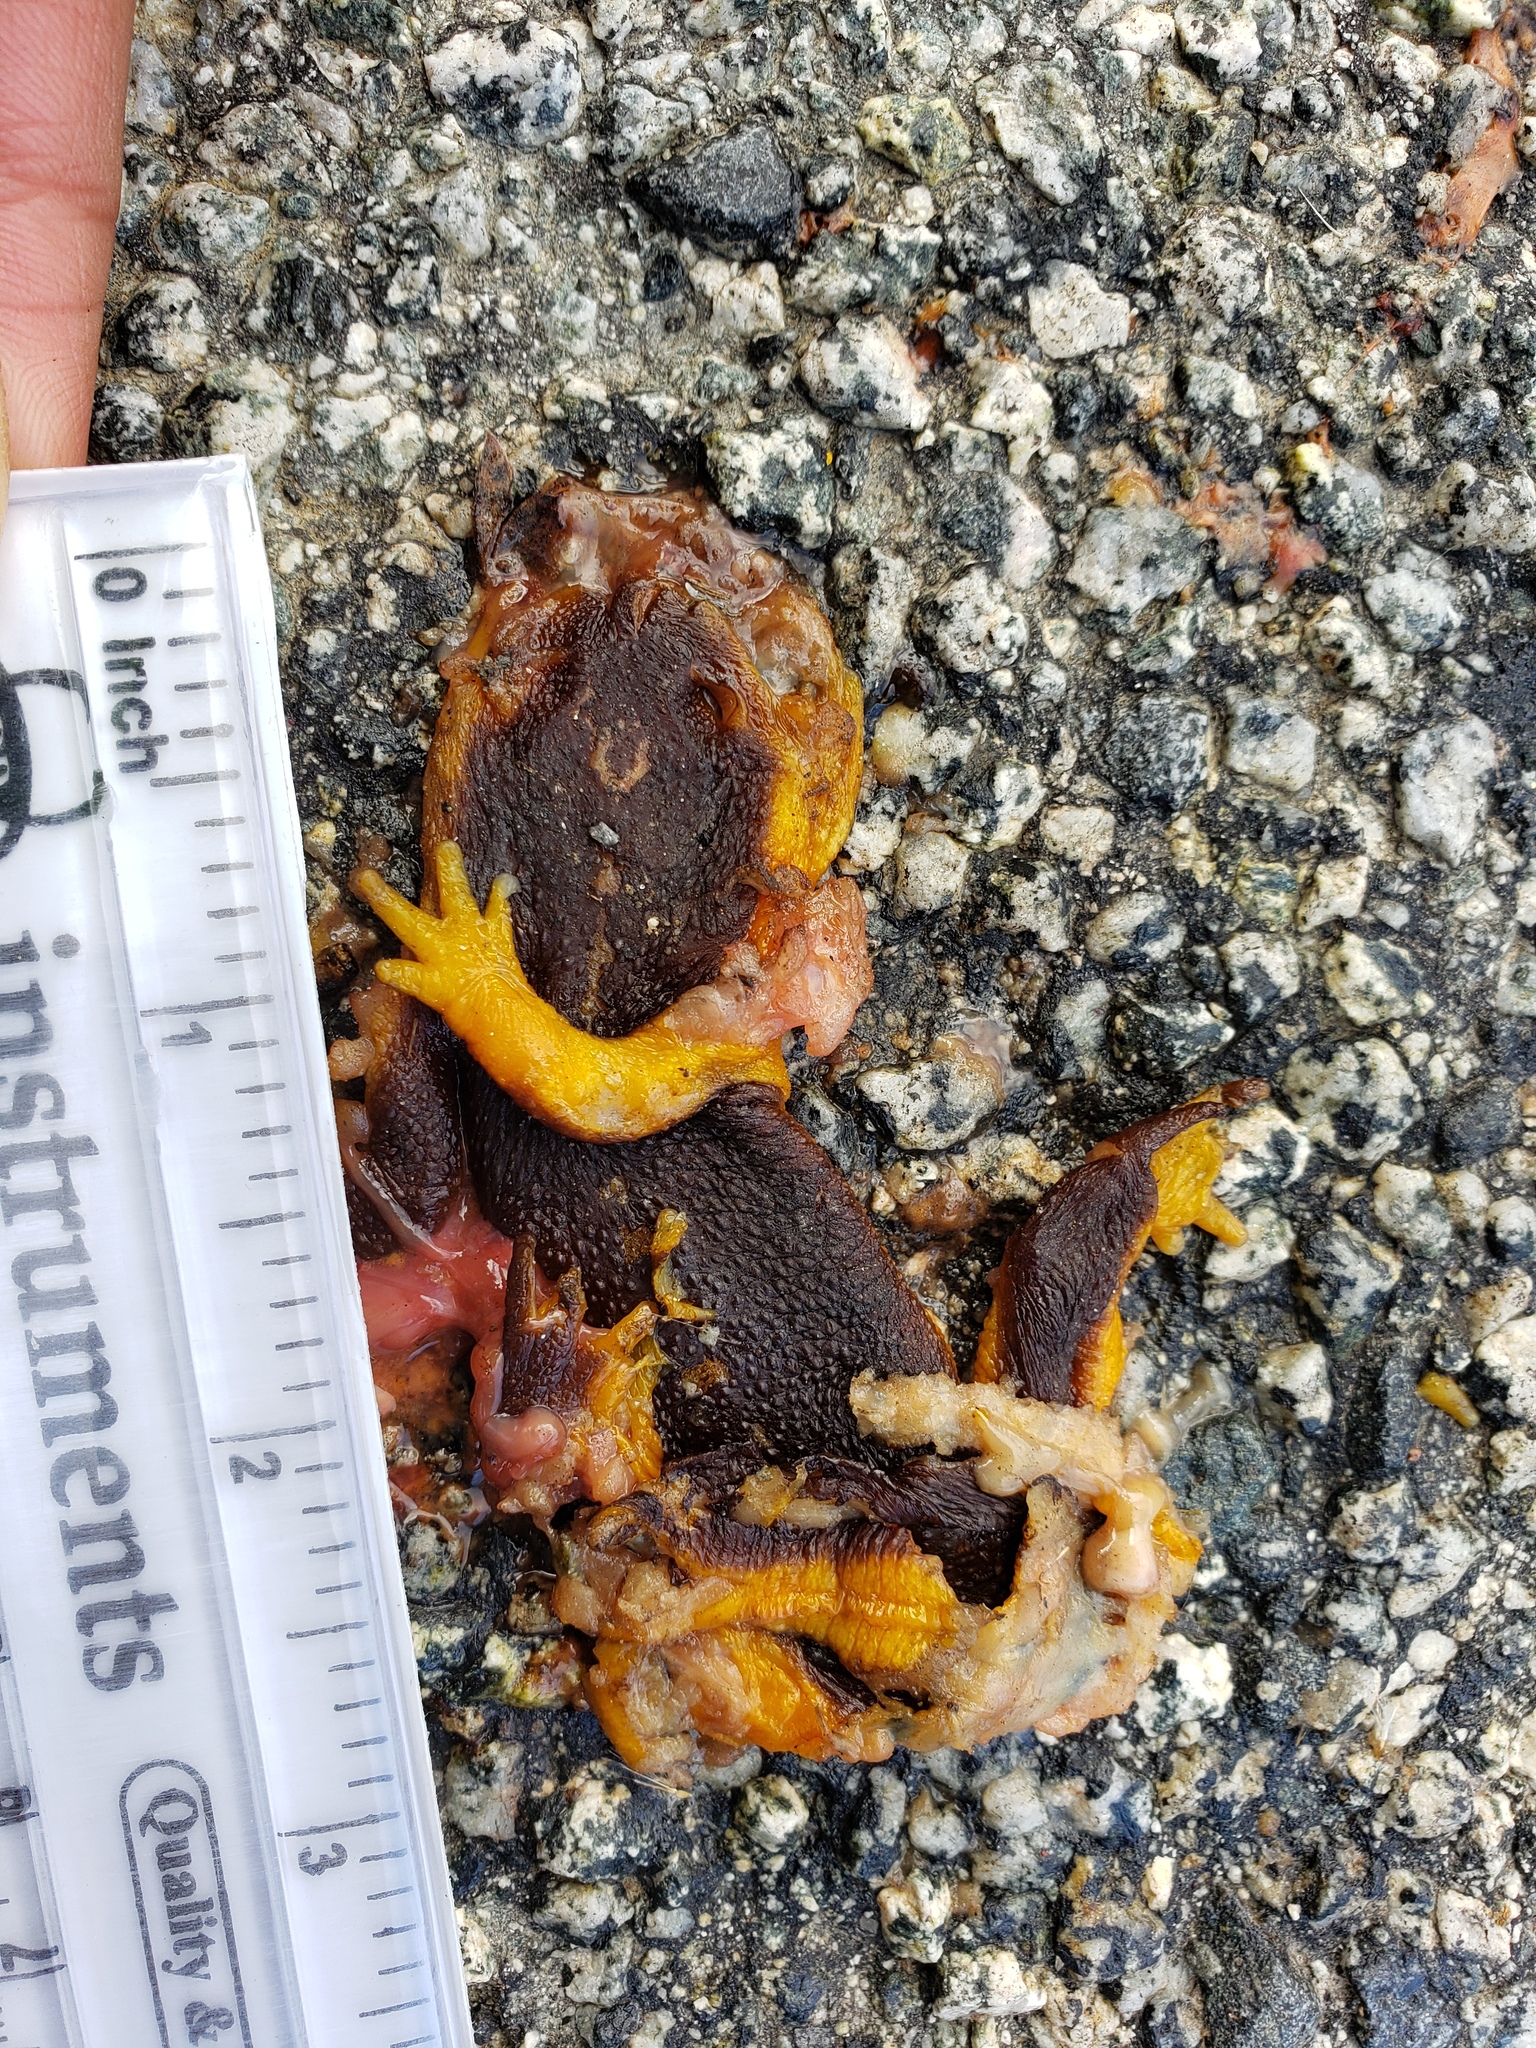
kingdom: Animalia
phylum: Chordata
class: Amphibia
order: Caudata
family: Salamandridae
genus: Taricha
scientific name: Taricha
